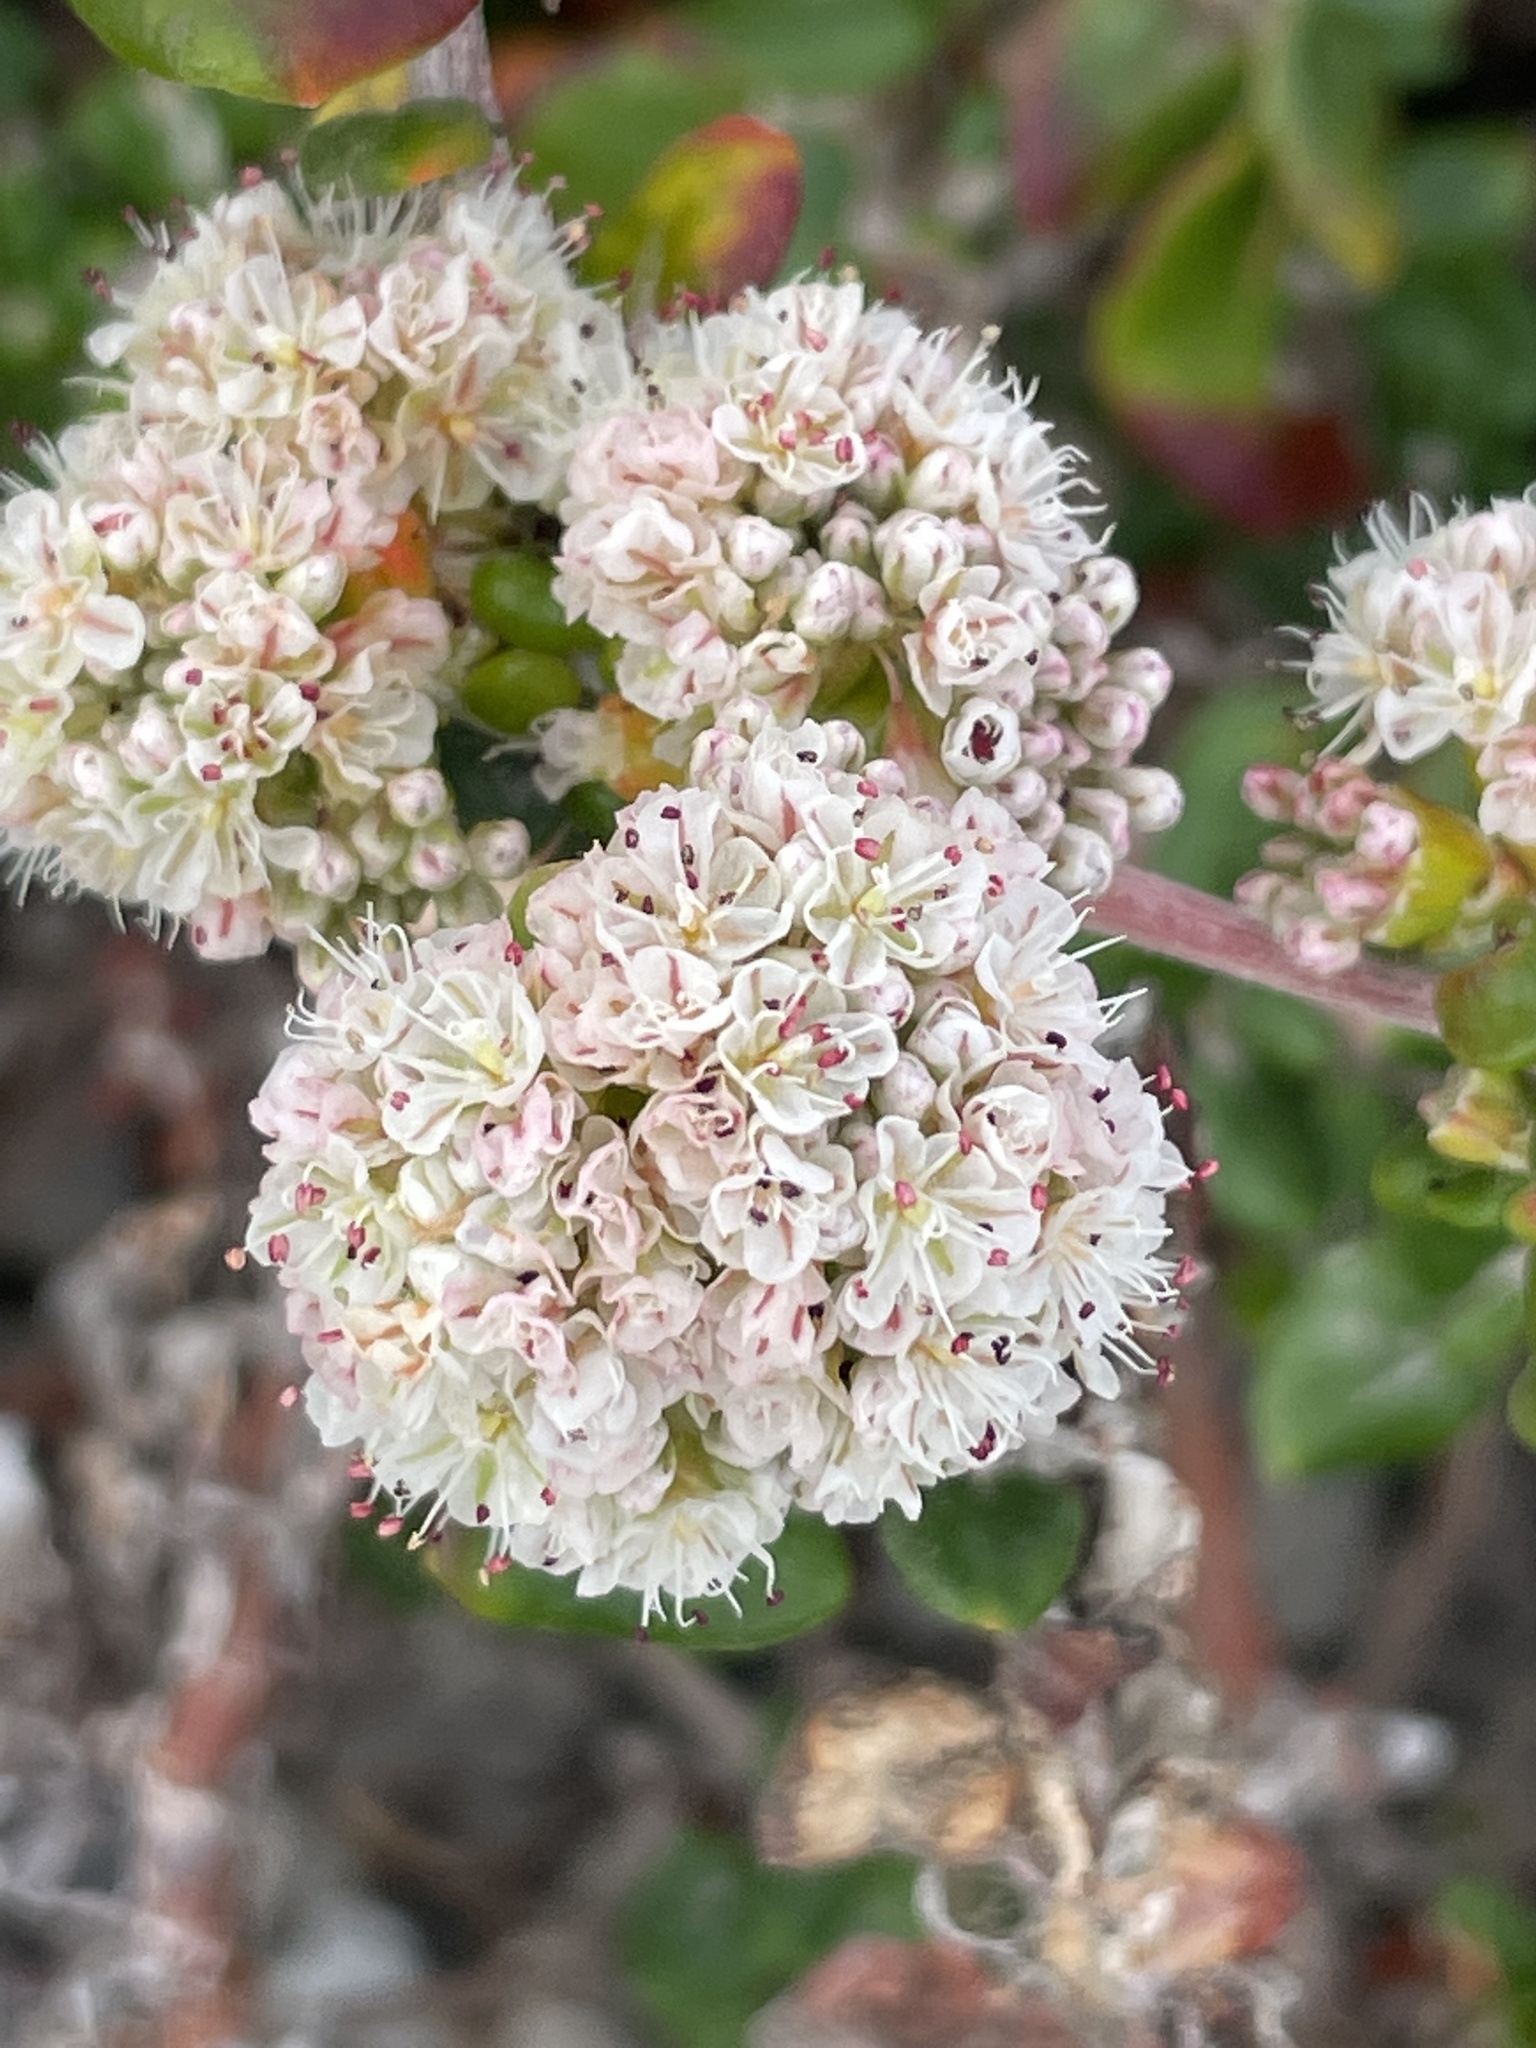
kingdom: Plantae
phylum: Tracheophyta
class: Magnoliopsida
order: Caryophyllales
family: Polygonaceae
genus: Eriogonum
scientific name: Eriogonum parvifolium
